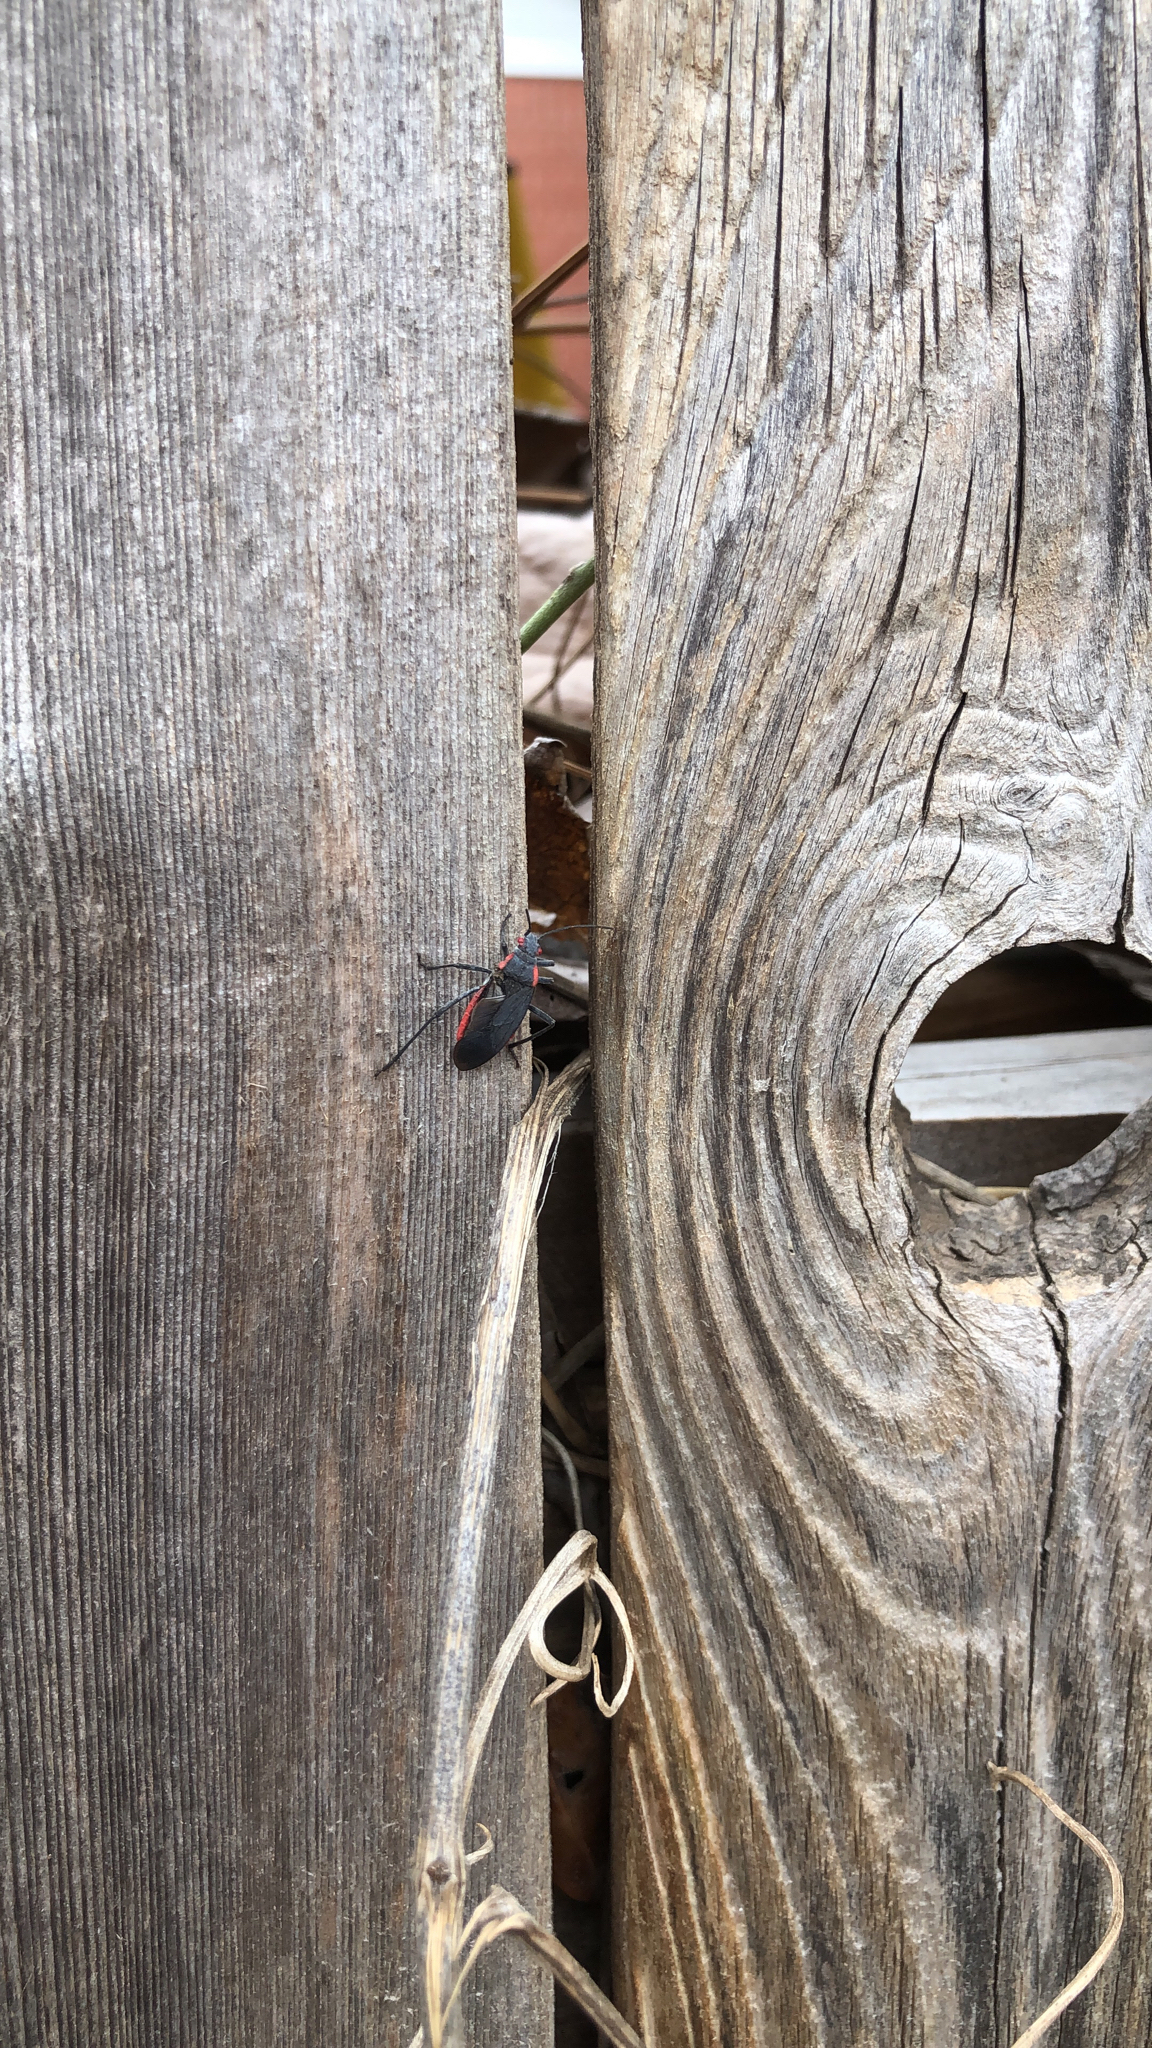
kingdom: Animalia
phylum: Arthropoda
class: Insecta
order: Hemiptera
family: Rhopalidae
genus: Jadera
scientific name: Jadera haematoloma
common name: Red-shouldered bug
